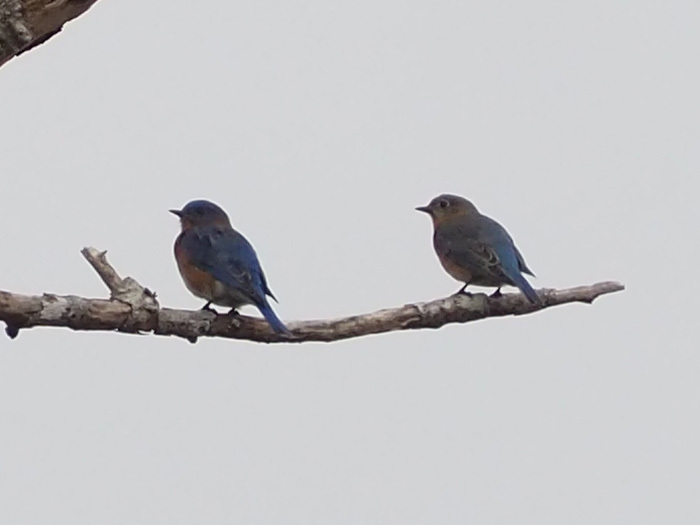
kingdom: Animalia
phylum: Chordata
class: Aves
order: Passeriformes
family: Turdidae
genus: Sialia
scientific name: Sialia sialis
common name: Eastern bluebird
